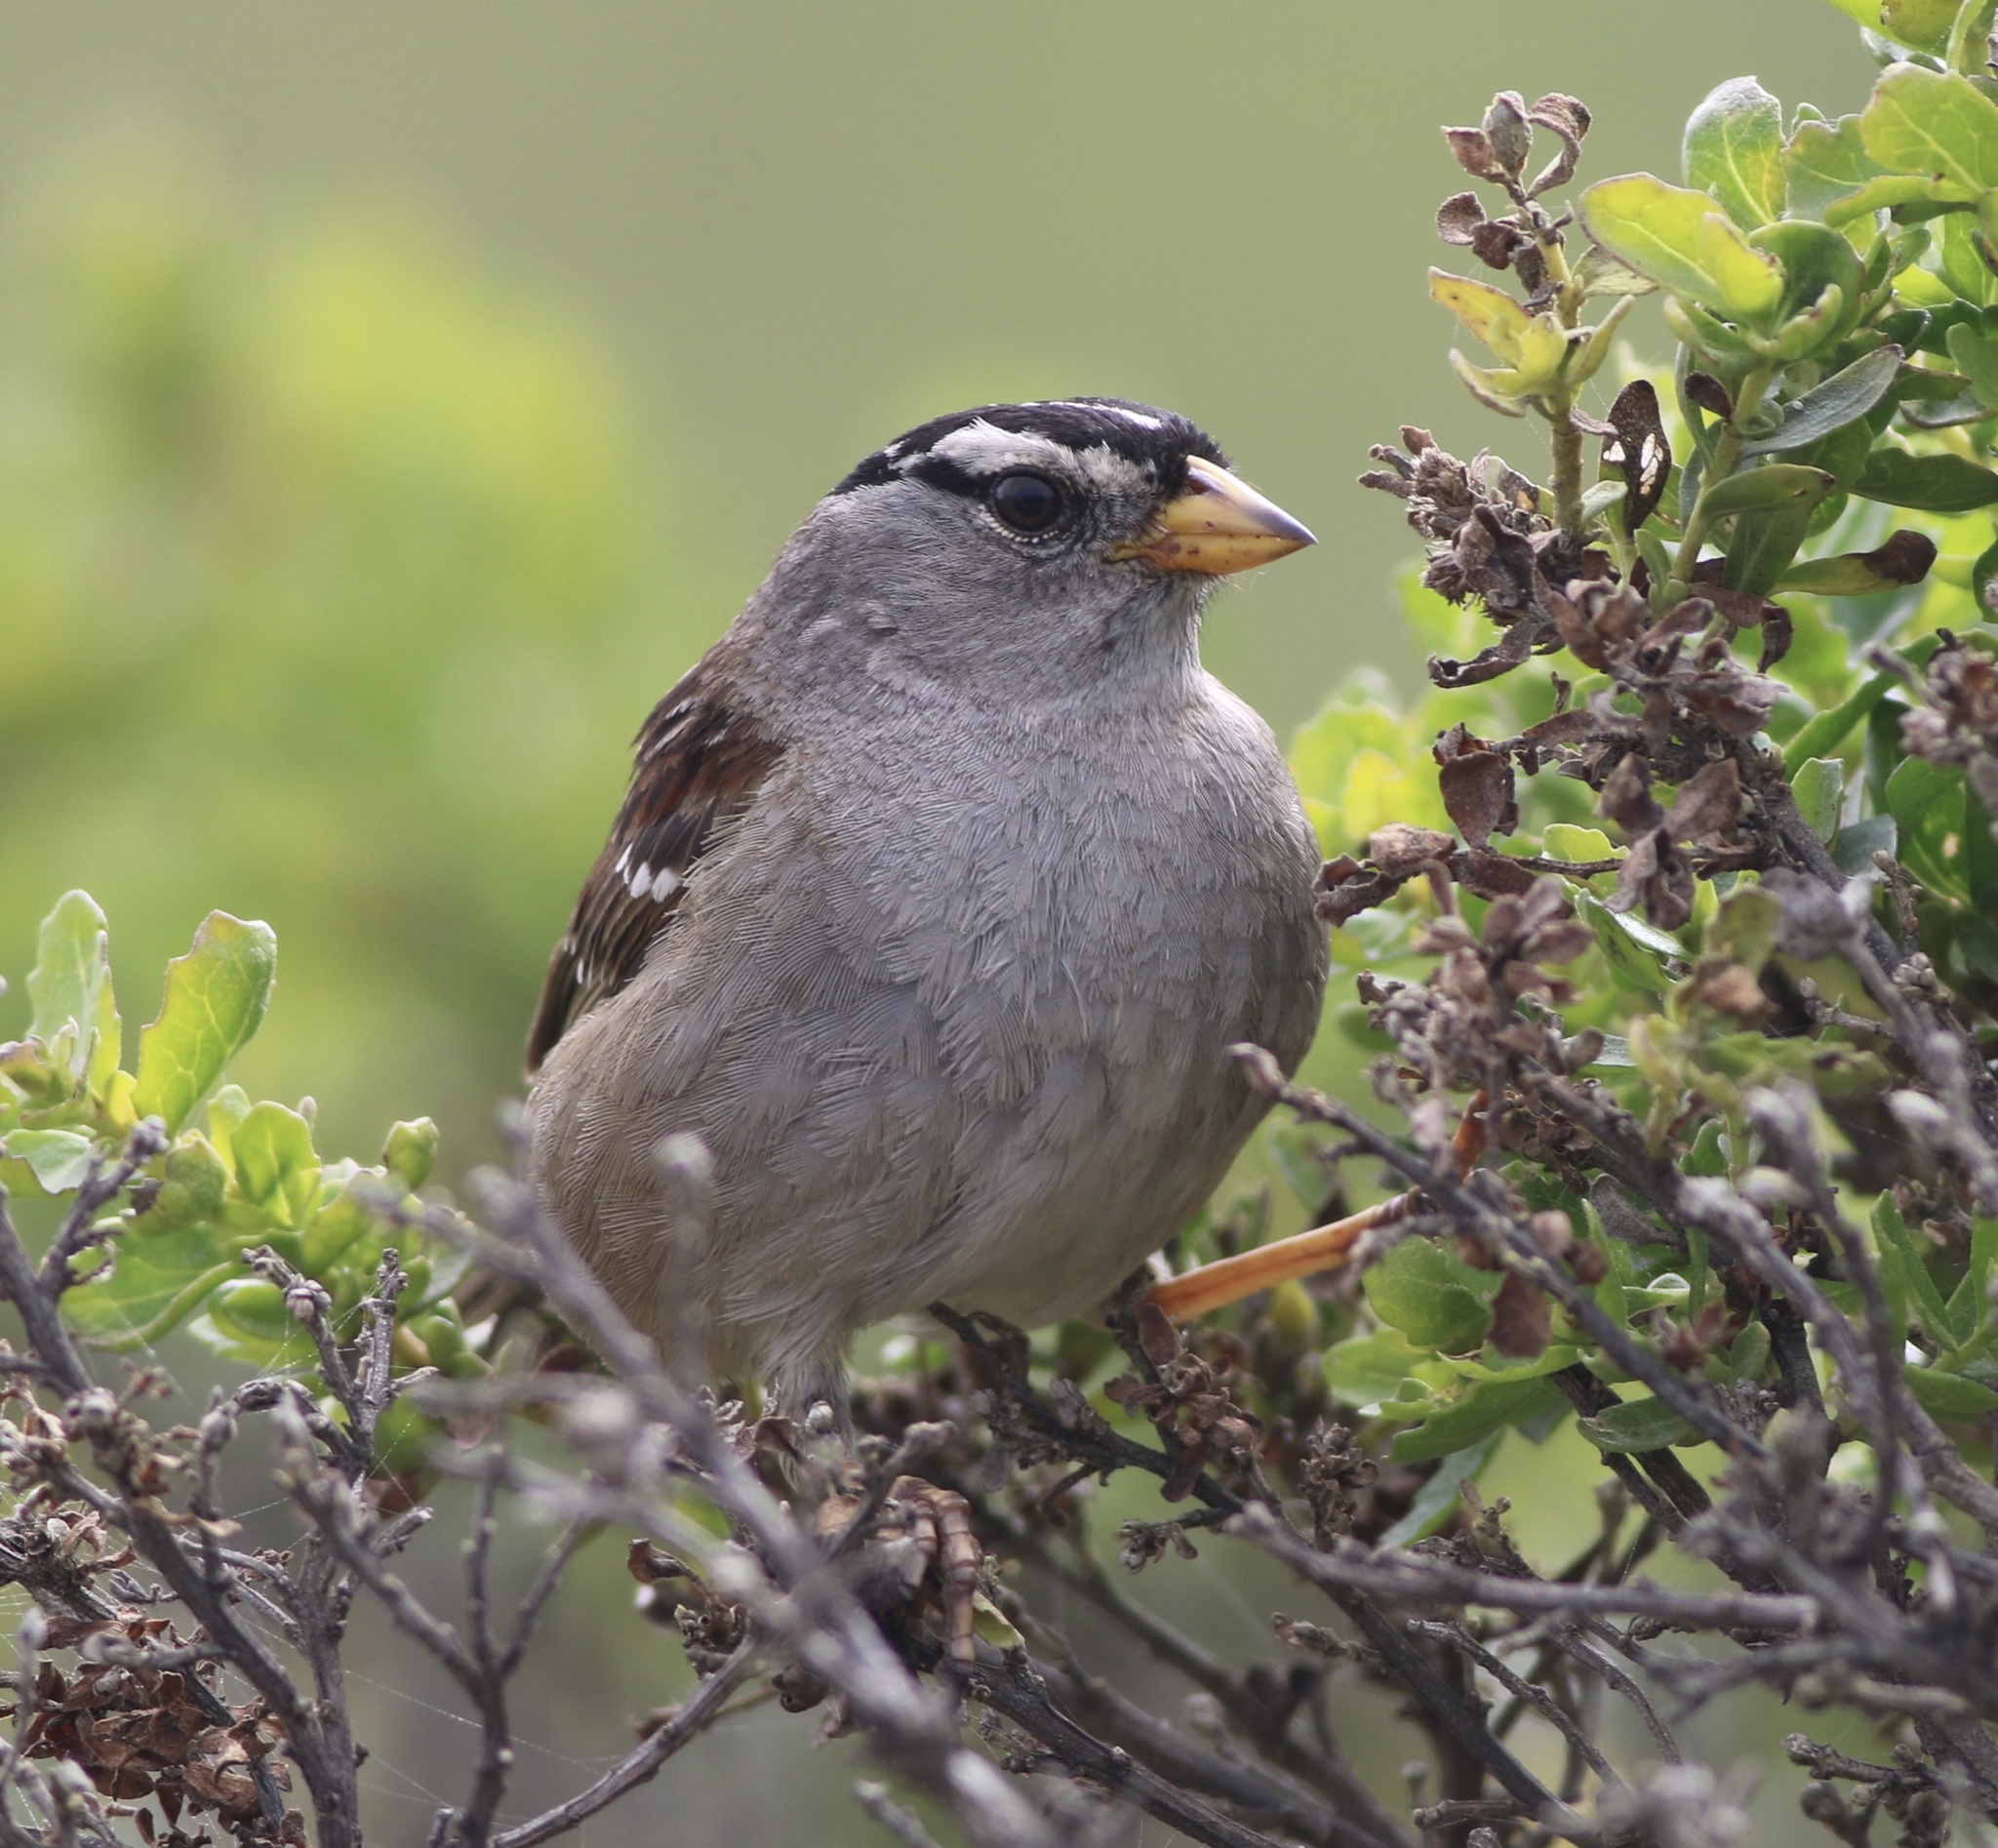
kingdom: Animalia
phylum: Chordata
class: Aves
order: Passeriformes
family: Passerellidae
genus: Zonotrichia
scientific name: Zonotrichia leucophrys
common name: White-crowned sparrow
